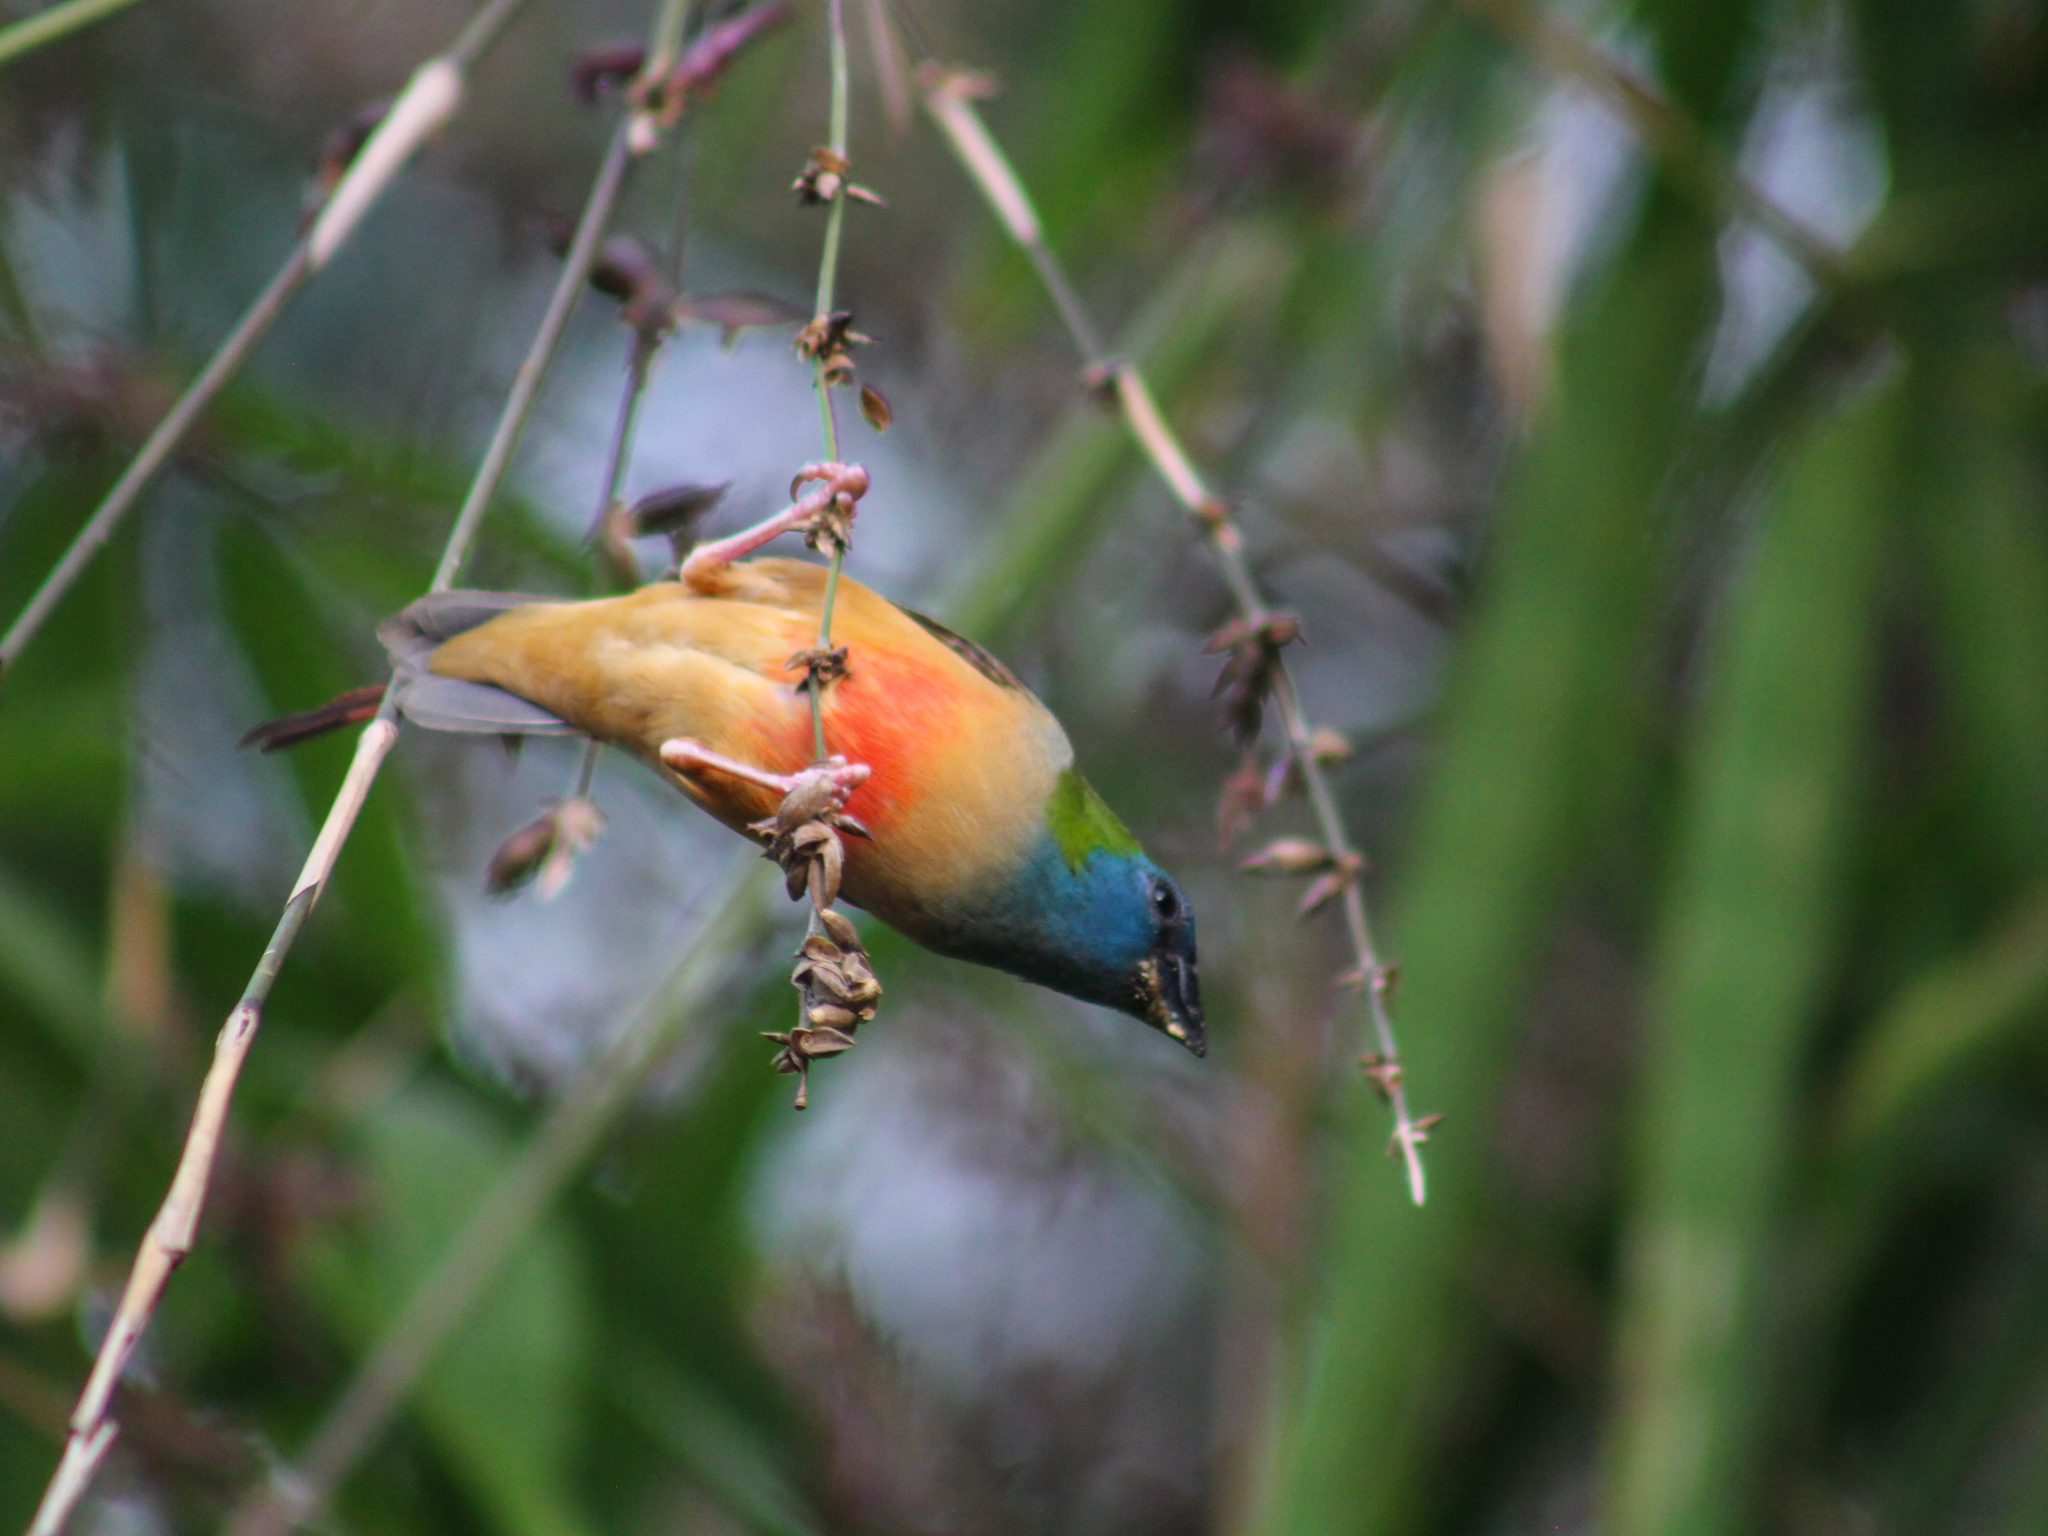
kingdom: Animalia
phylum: Chordata
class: Aves
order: Passeriformes
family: Estrildidae
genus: Erythrura
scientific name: Erythrura prasina
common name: Pin-tailed parrotfinch
